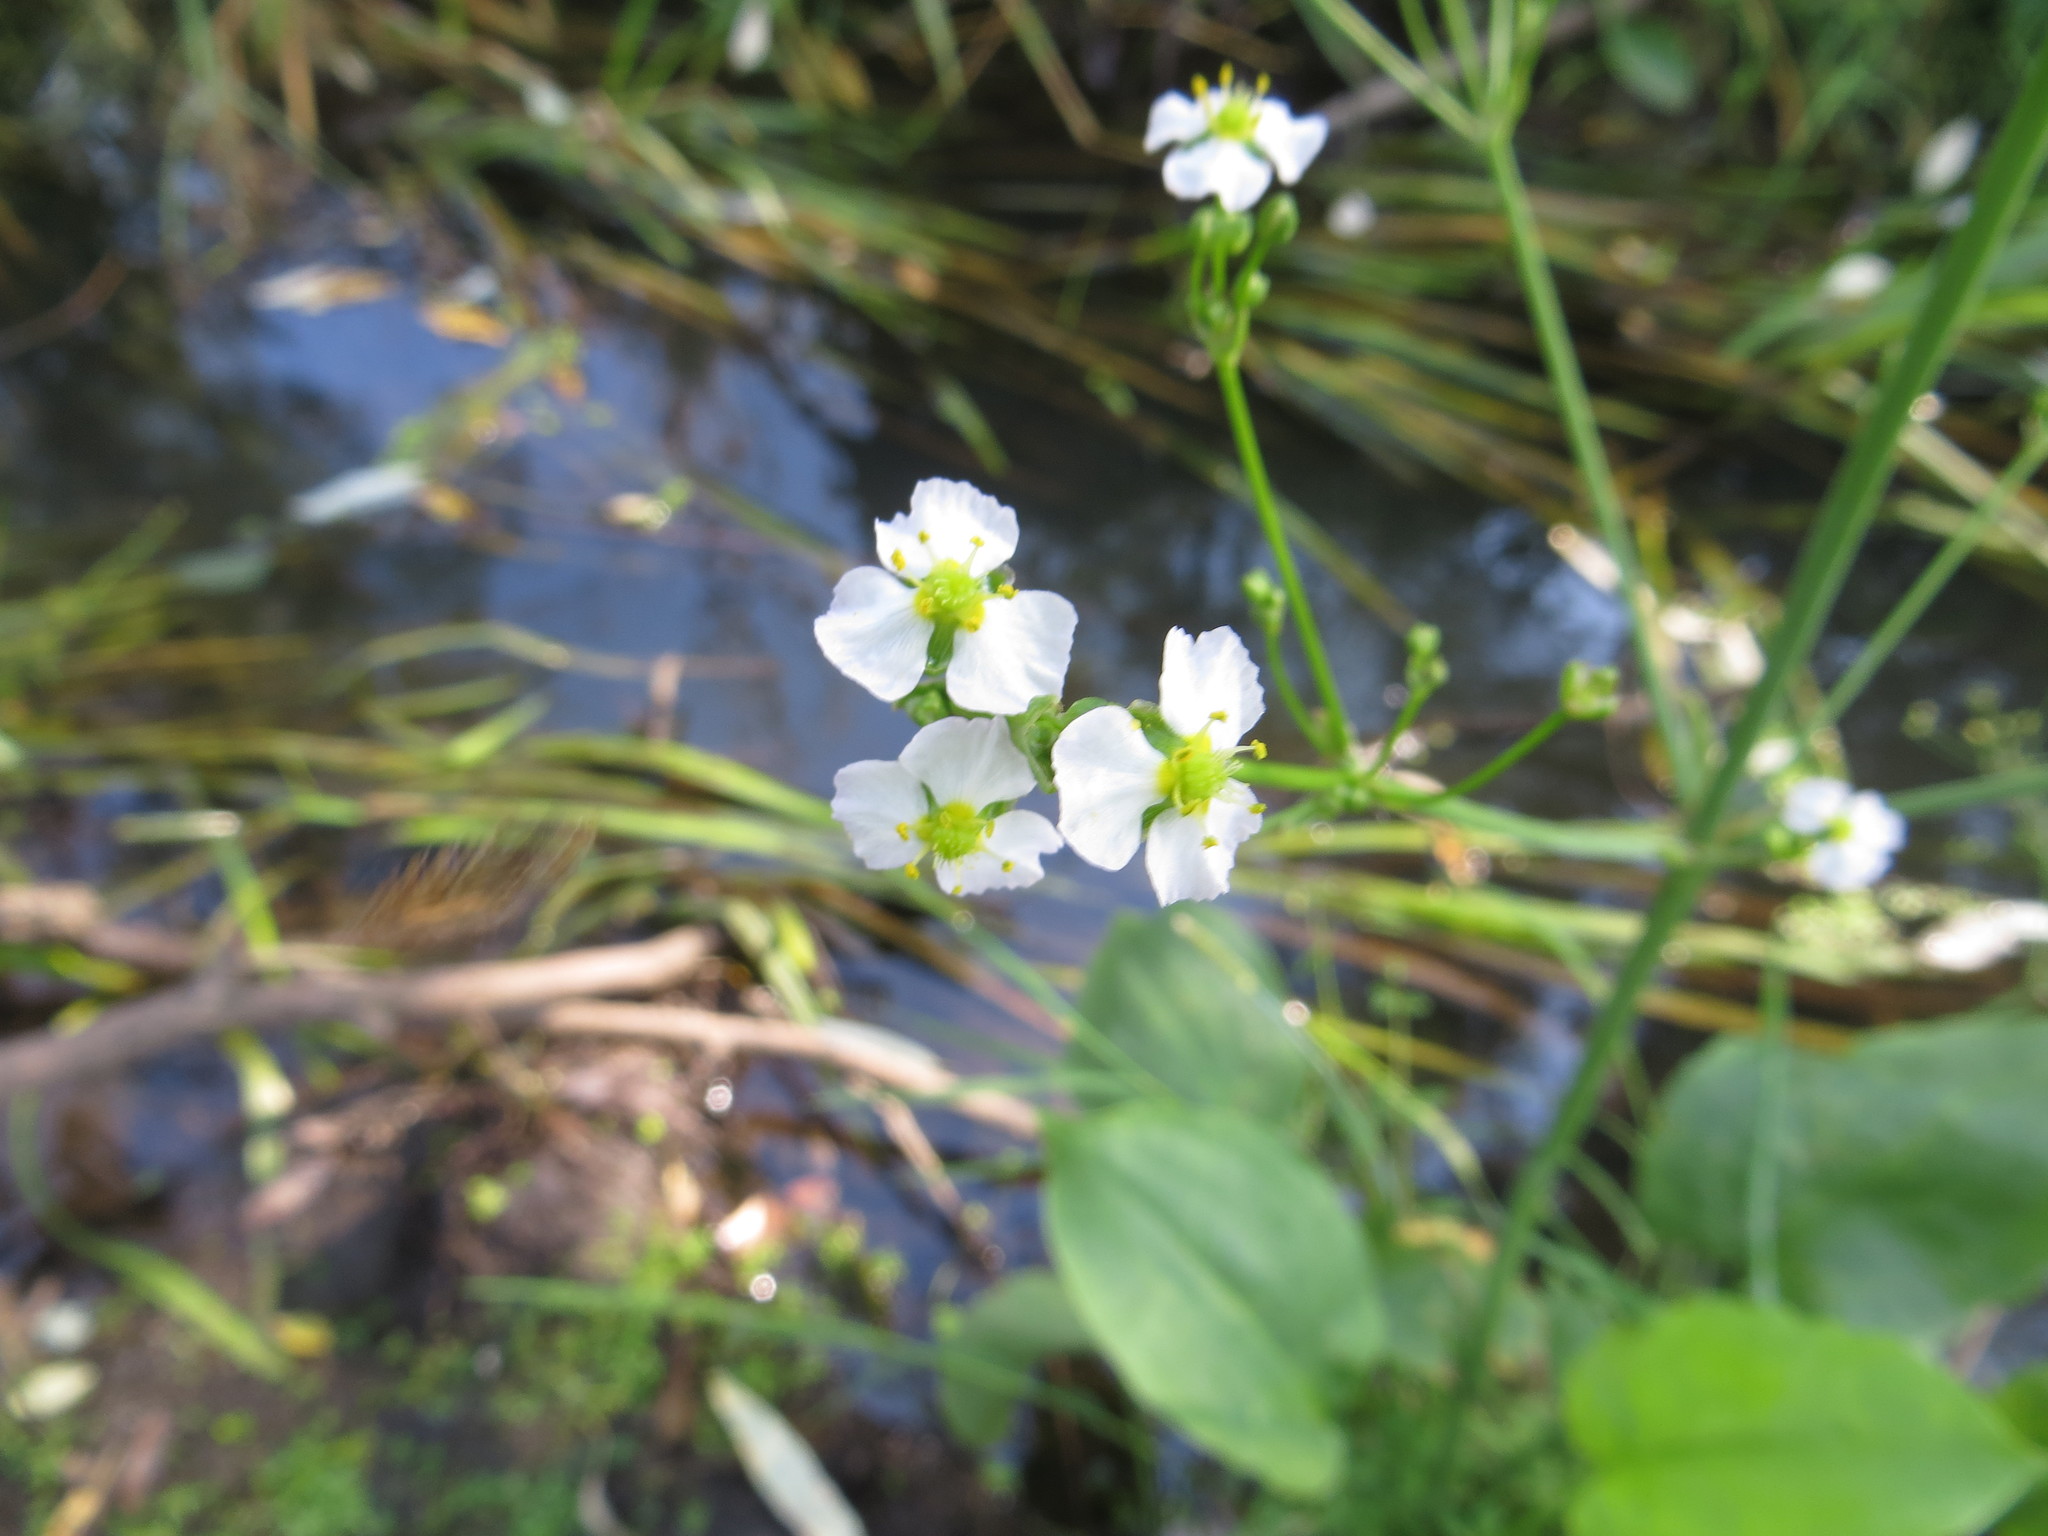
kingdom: Plantae
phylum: Tracheophyta
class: Liliopsida
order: Alismatales
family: Alismataceae
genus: Alisma
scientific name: Alisma plantago-aquatica
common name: Water-plantain
